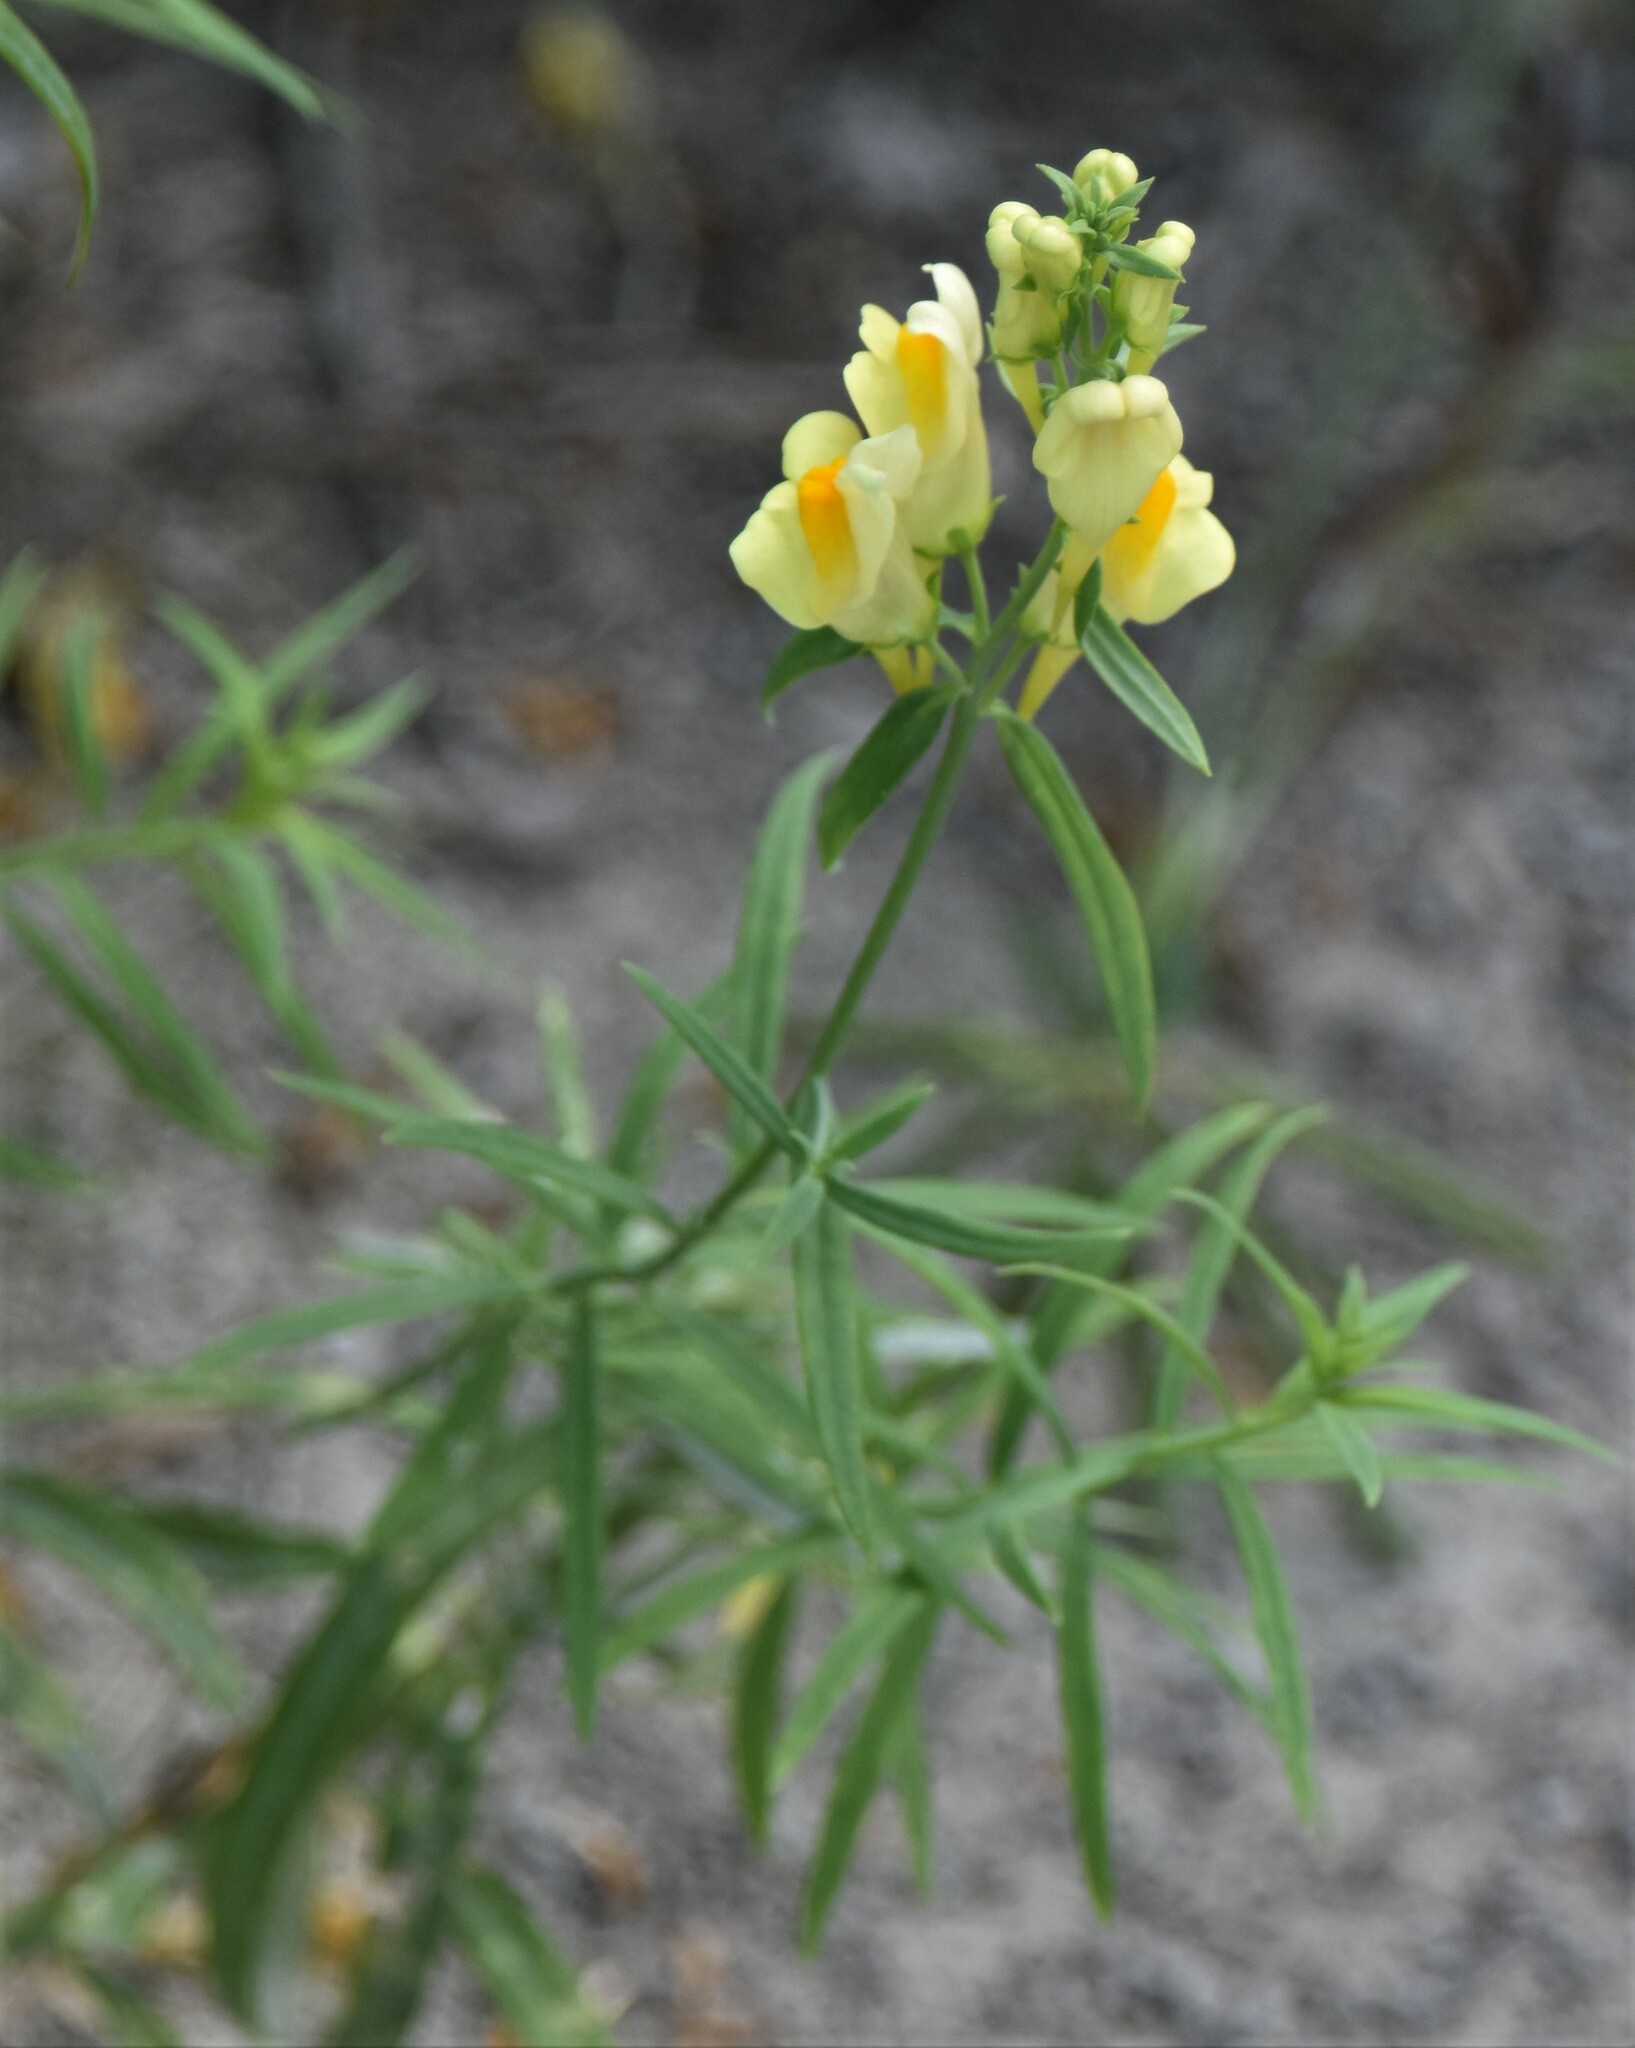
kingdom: Plantae
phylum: Tracheophyta
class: Magnoliopsida
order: Lamiales
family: Plantaginaceae
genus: Linaria
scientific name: Linaria vulgaris
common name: Butter and eggs
